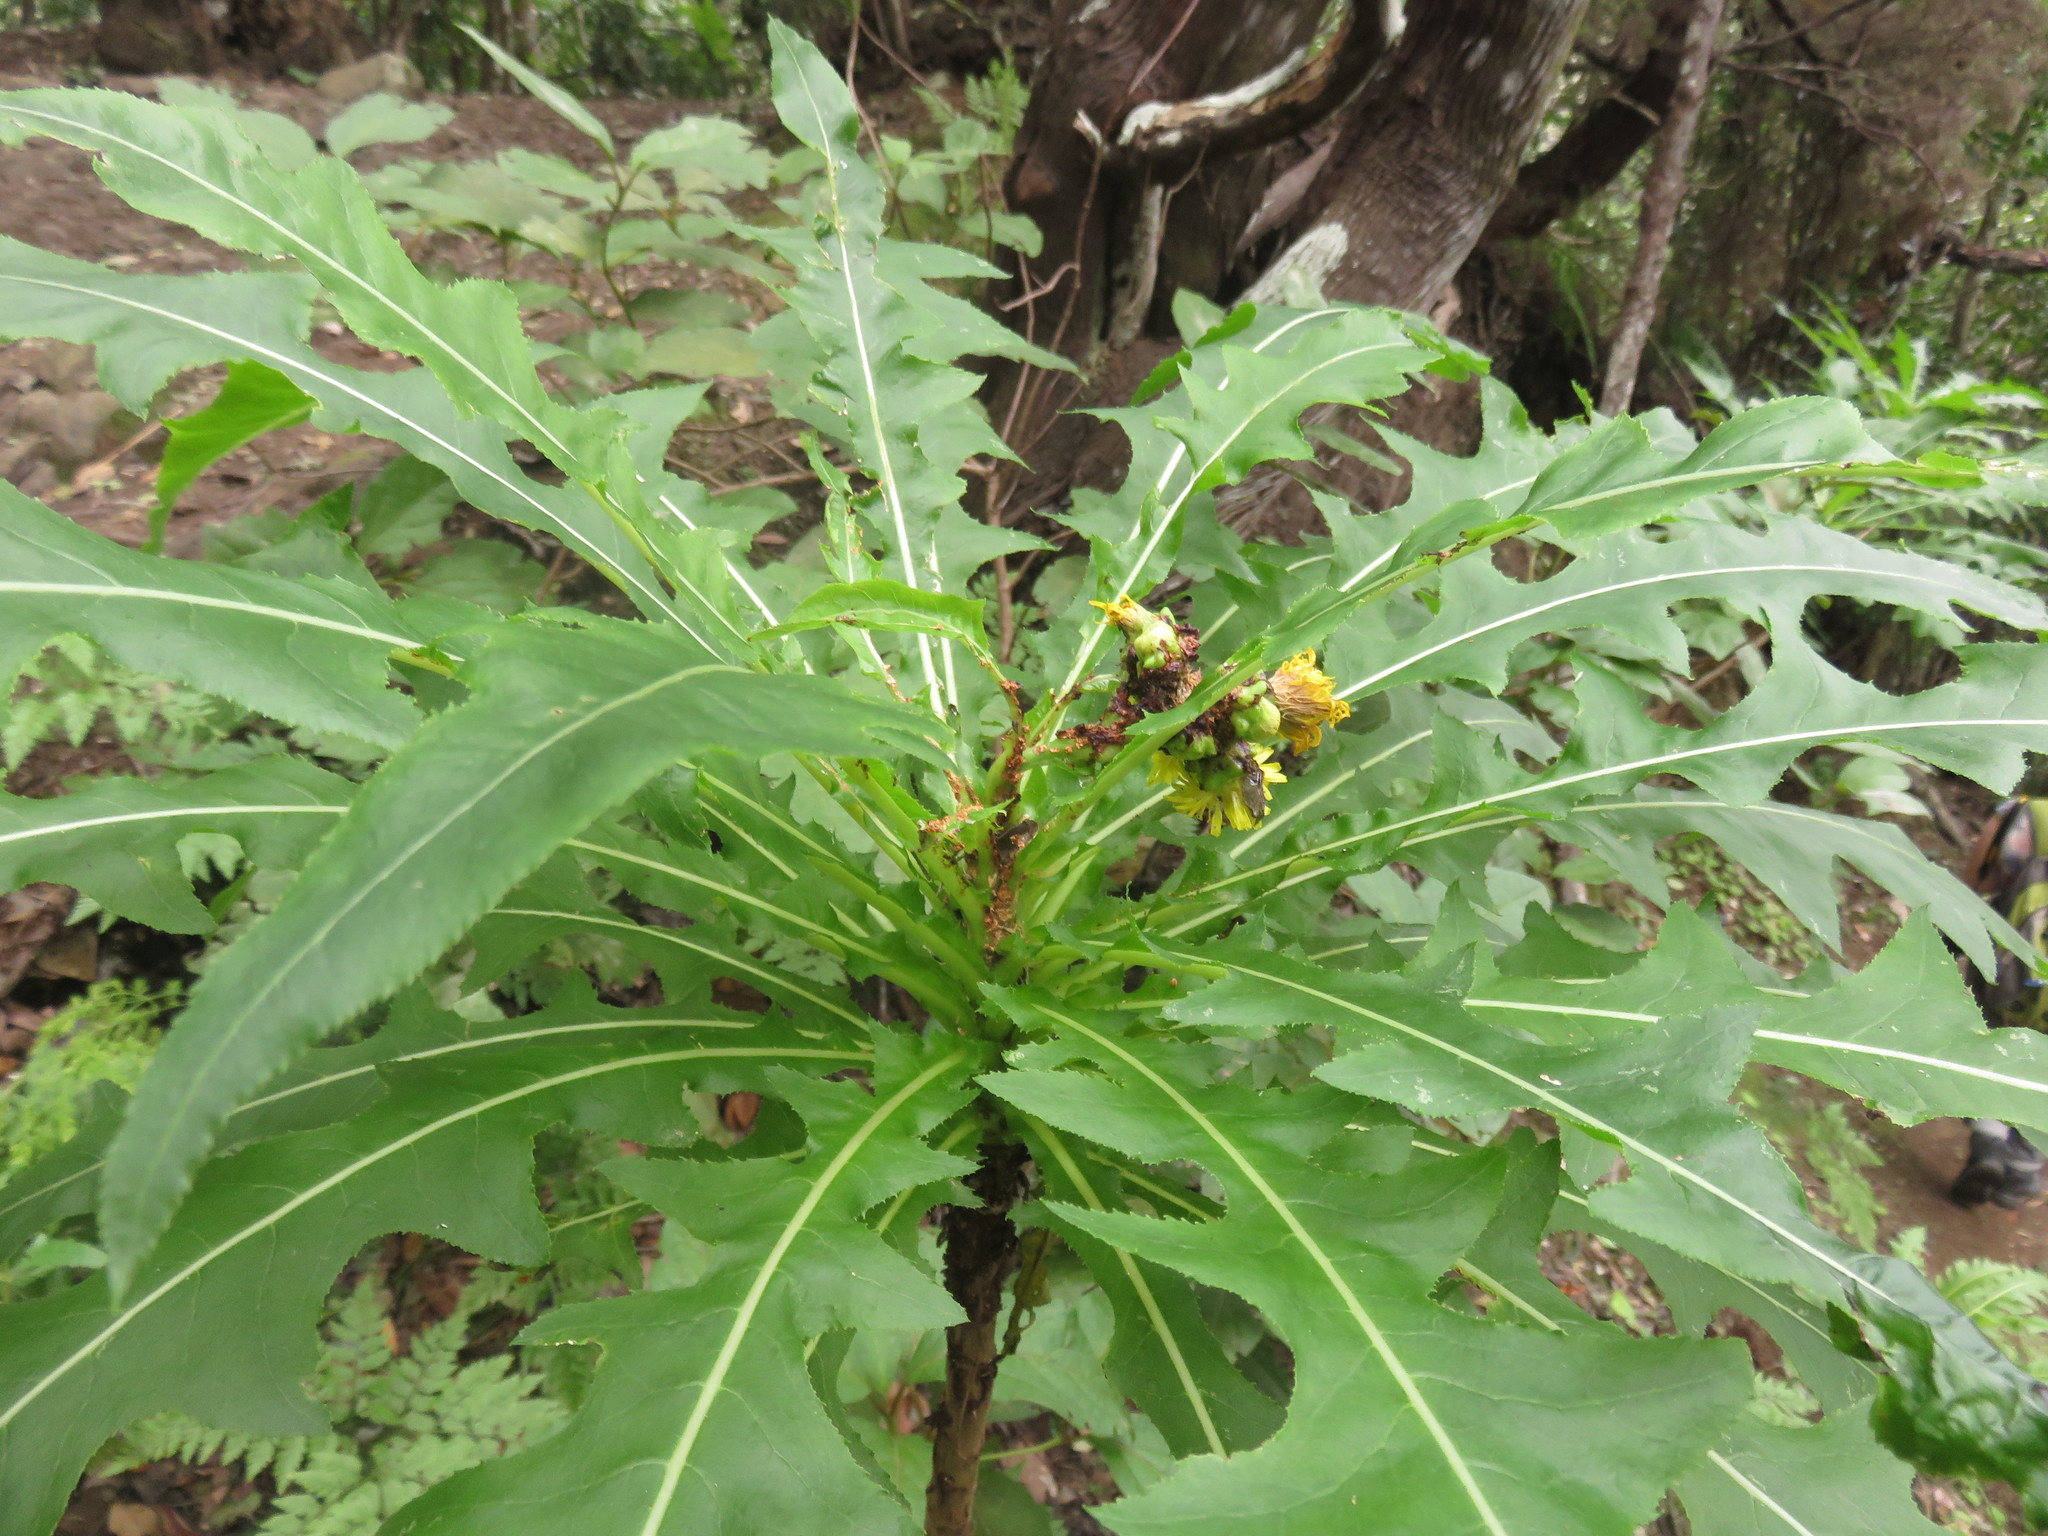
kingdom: Plantae
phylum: Tracheophyta
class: Magnoliopsida
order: Asterales
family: Asteraceae
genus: Sonchus
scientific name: Sonchus congestus
